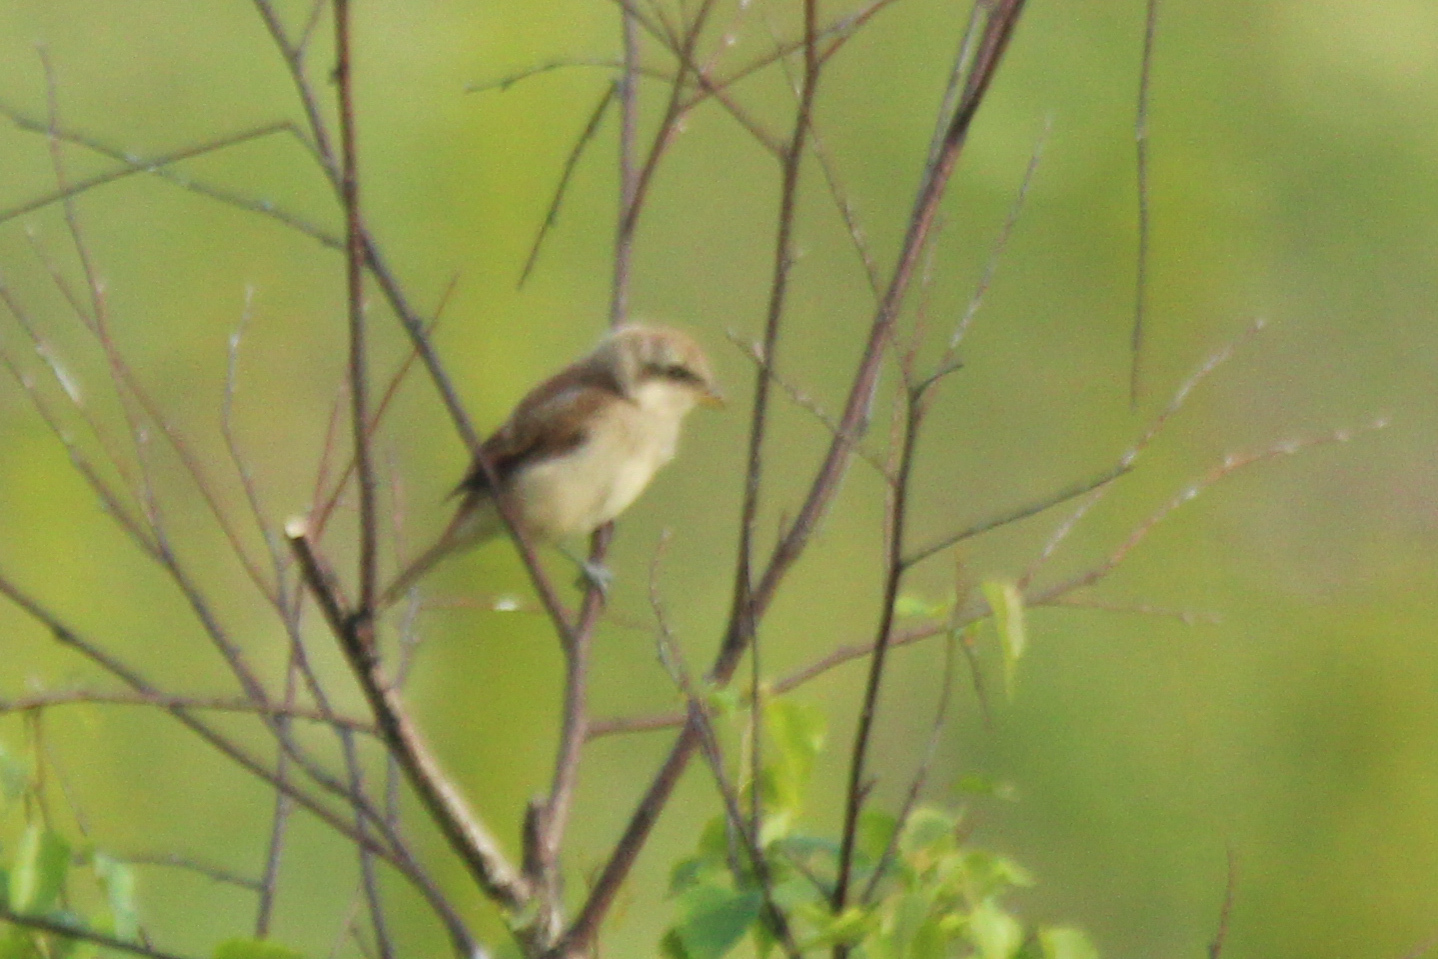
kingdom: Animalia
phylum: Chordata
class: Aves
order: Passeriformes
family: Laniidae
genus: Lanius
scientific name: Lanius cristatus
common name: Brown shrike
